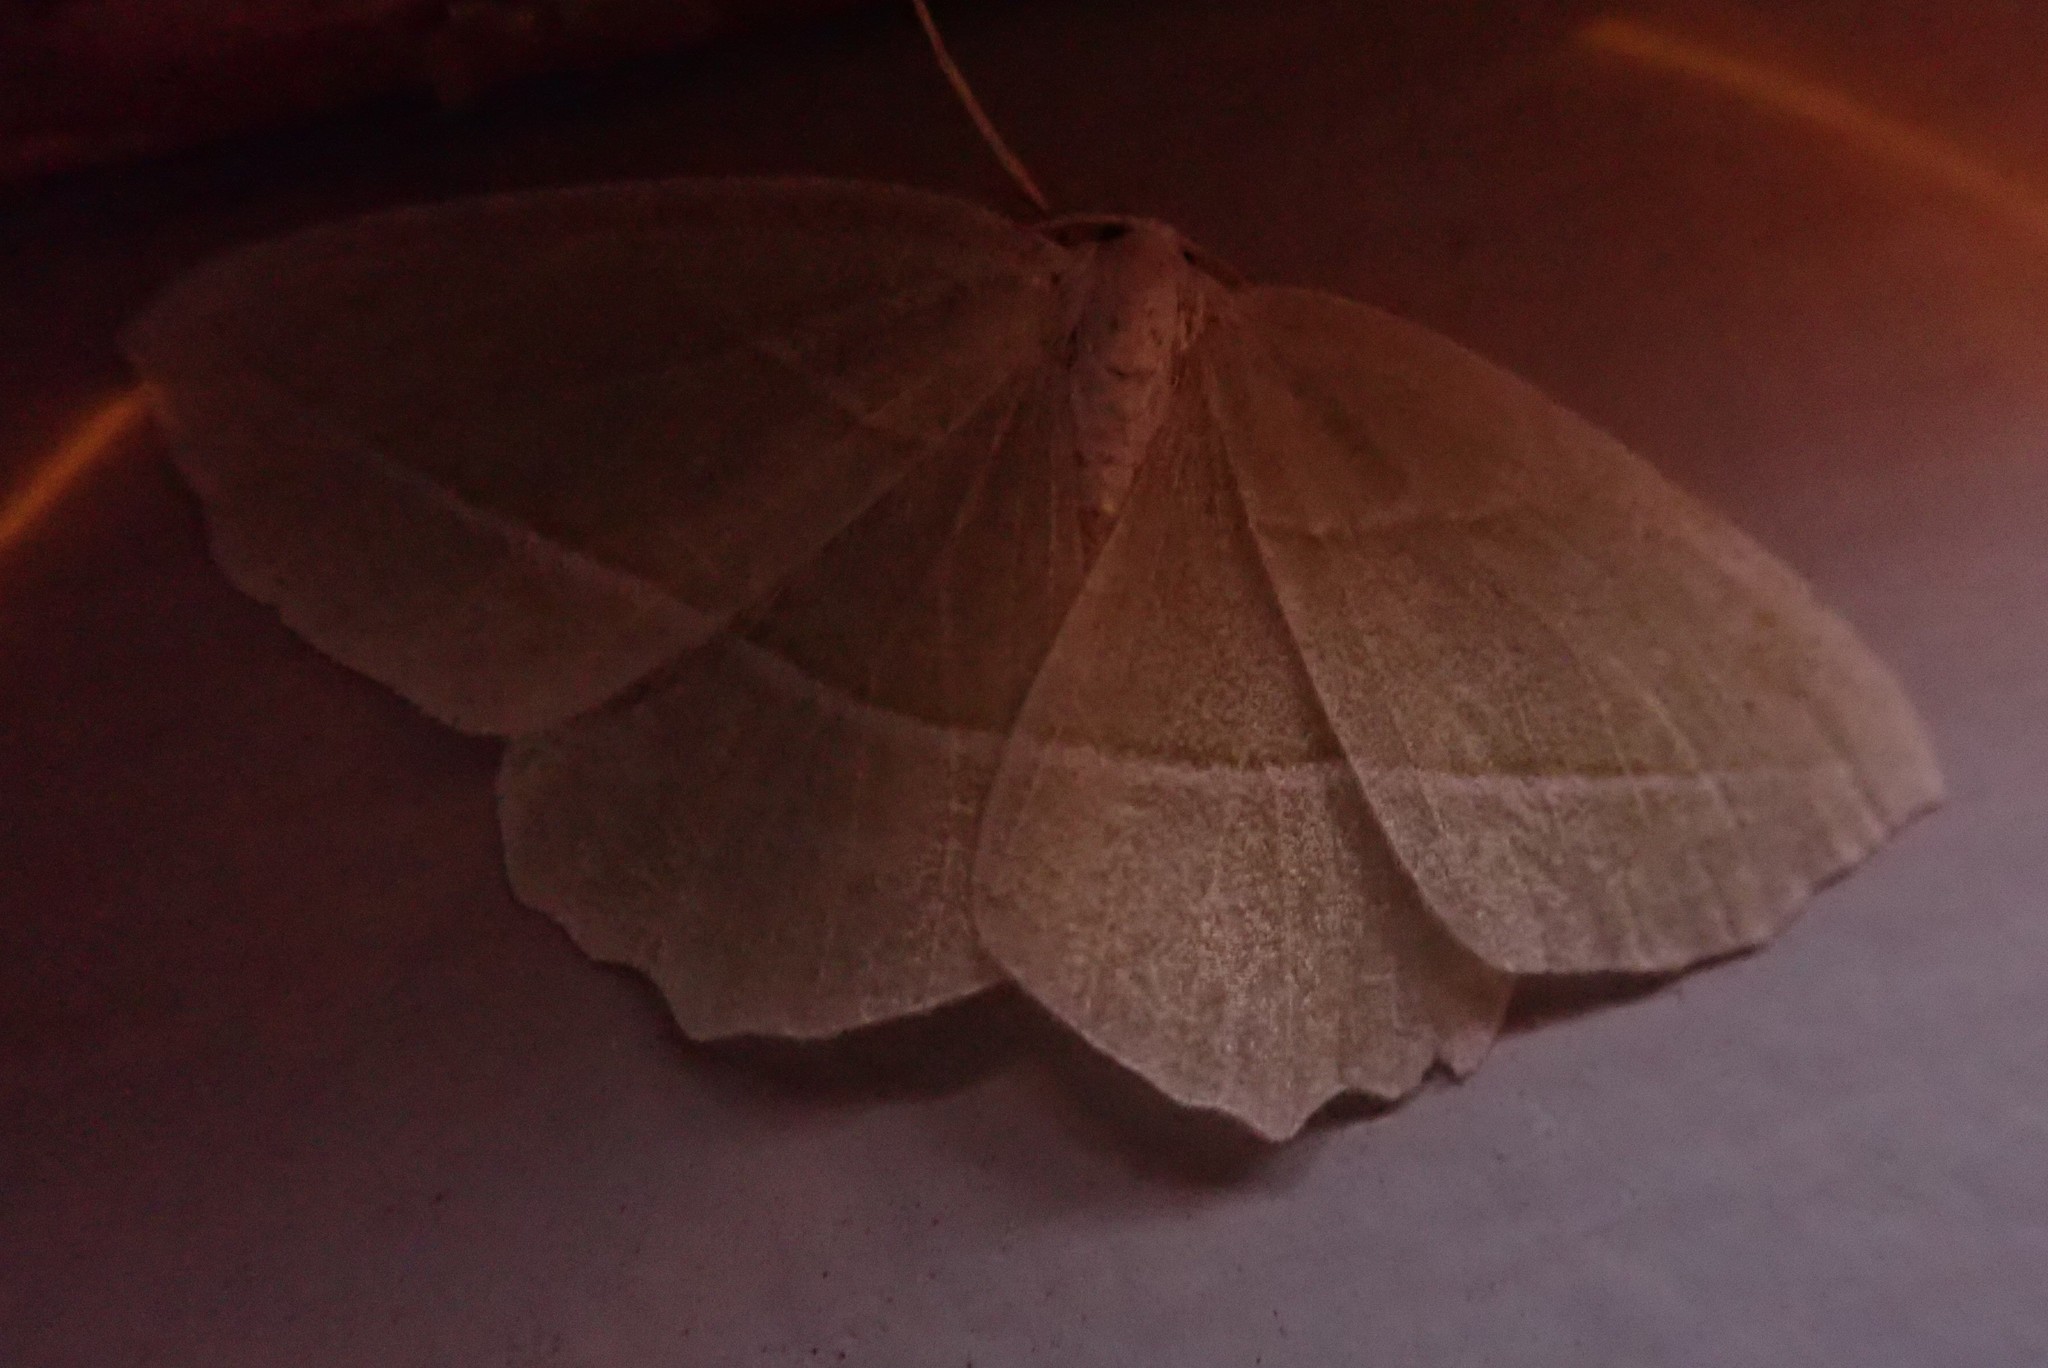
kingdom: Animalia
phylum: Arthropoda
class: Insecta
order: Lepidoptera
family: Geometridae
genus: Campaea
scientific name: Campaea perlata
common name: Fringed looper
